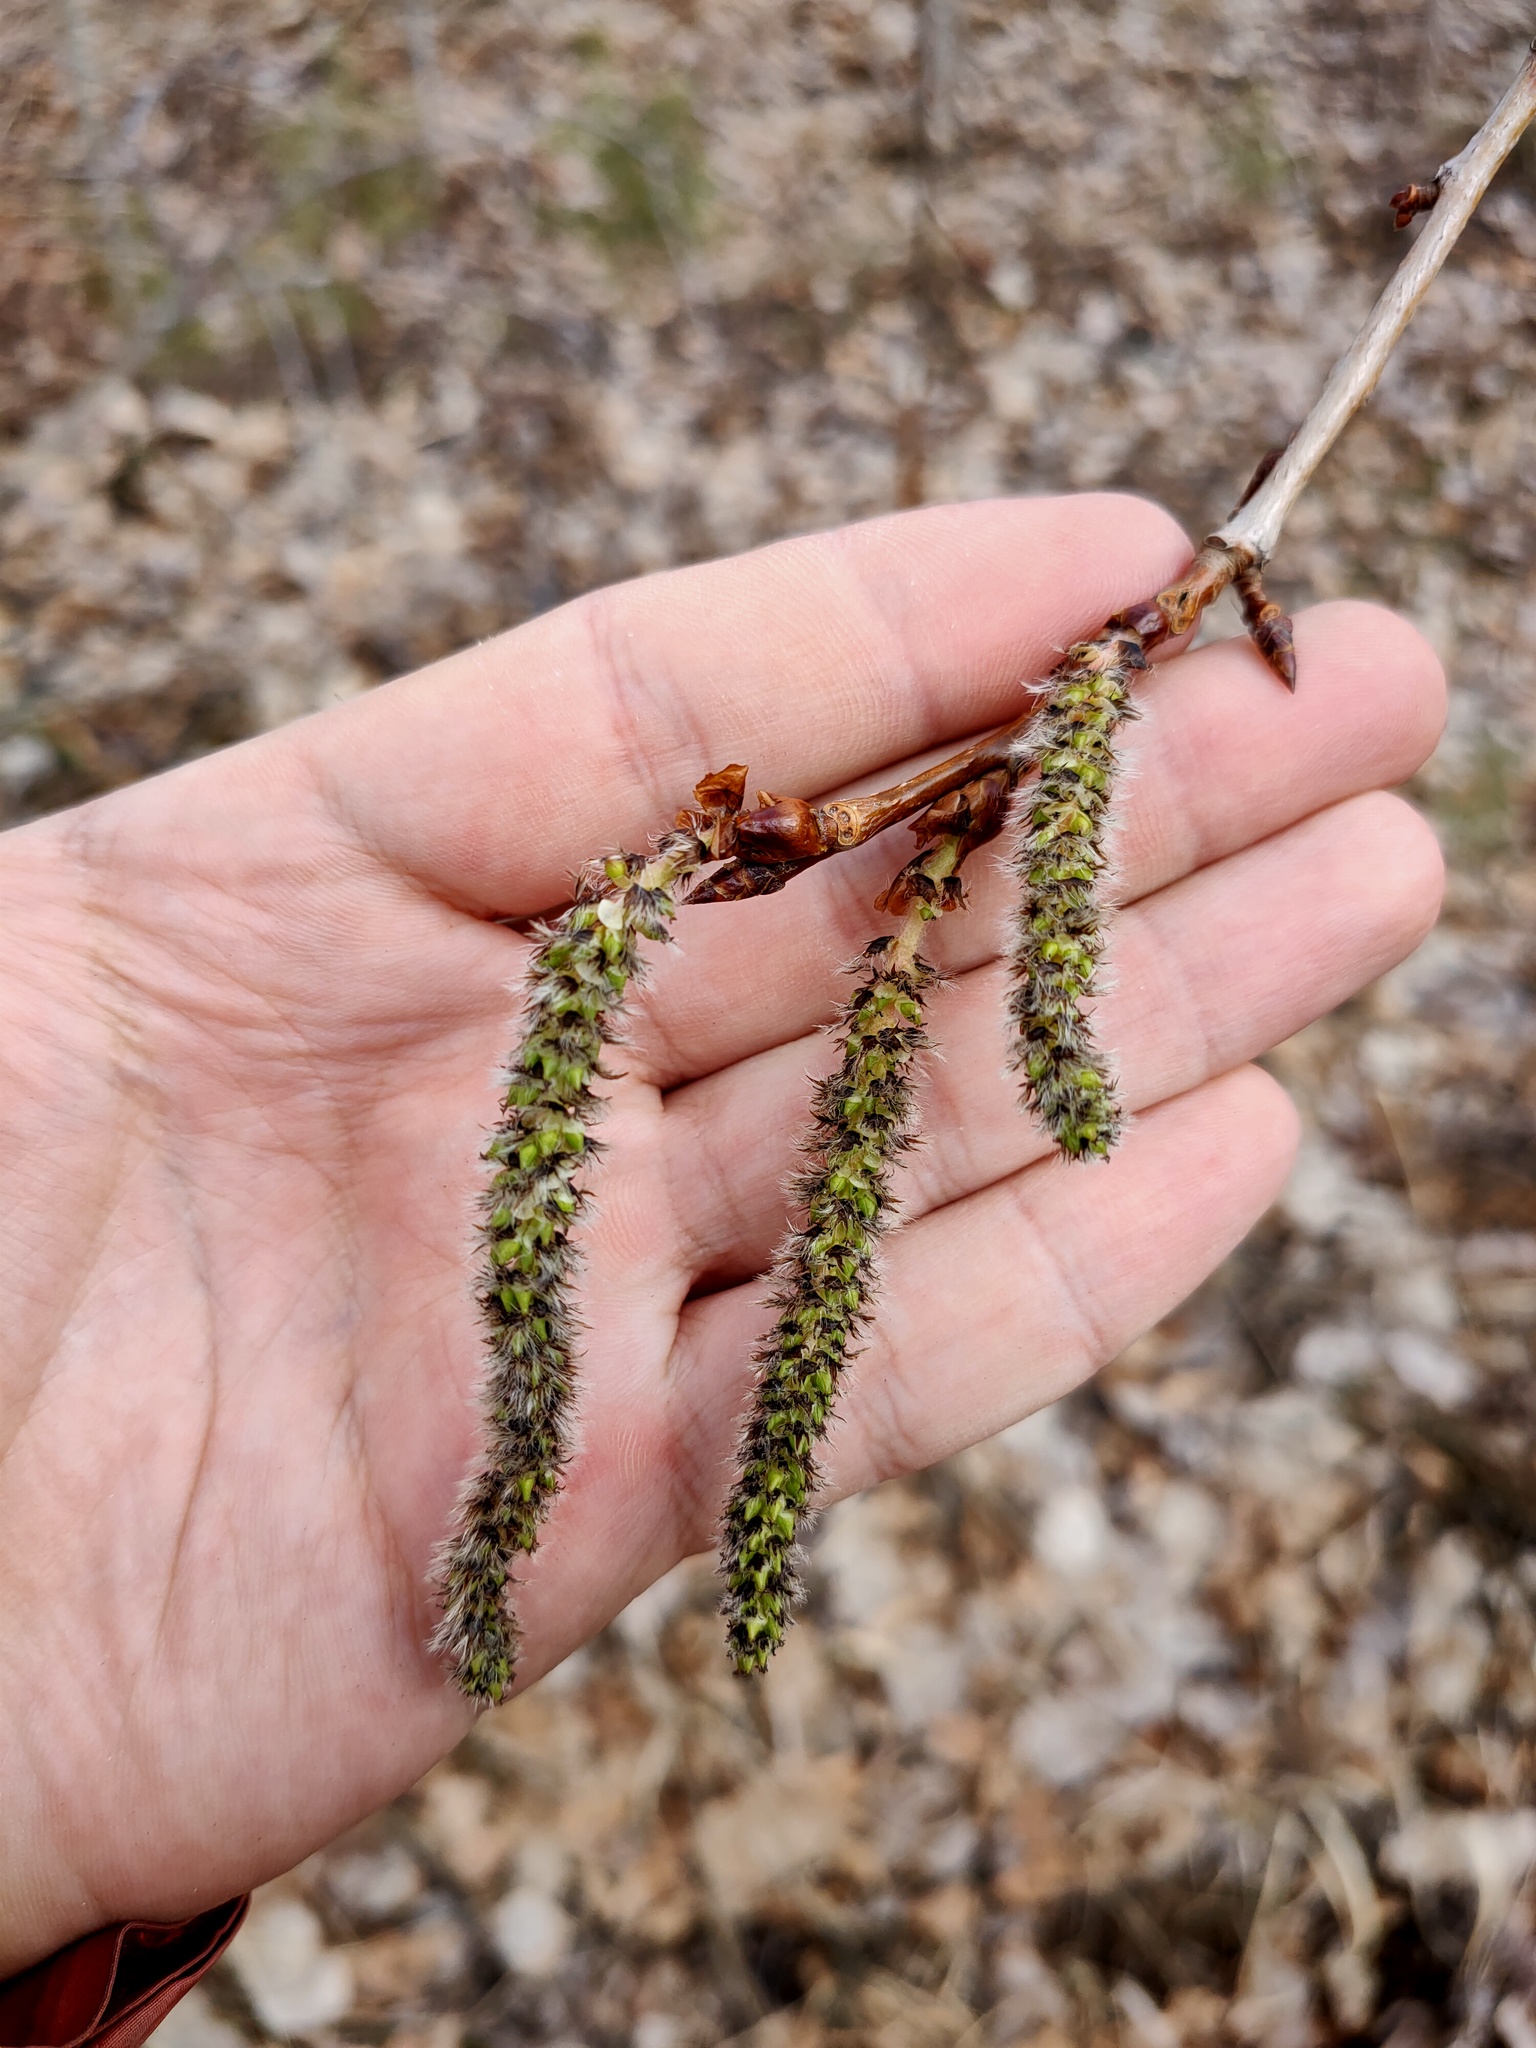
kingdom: Plantae
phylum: Tracheophyta
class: Magnoliopsida
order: Malpighiales
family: Salicaceae
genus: Populus
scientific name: Populus tremula
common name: European aspen
